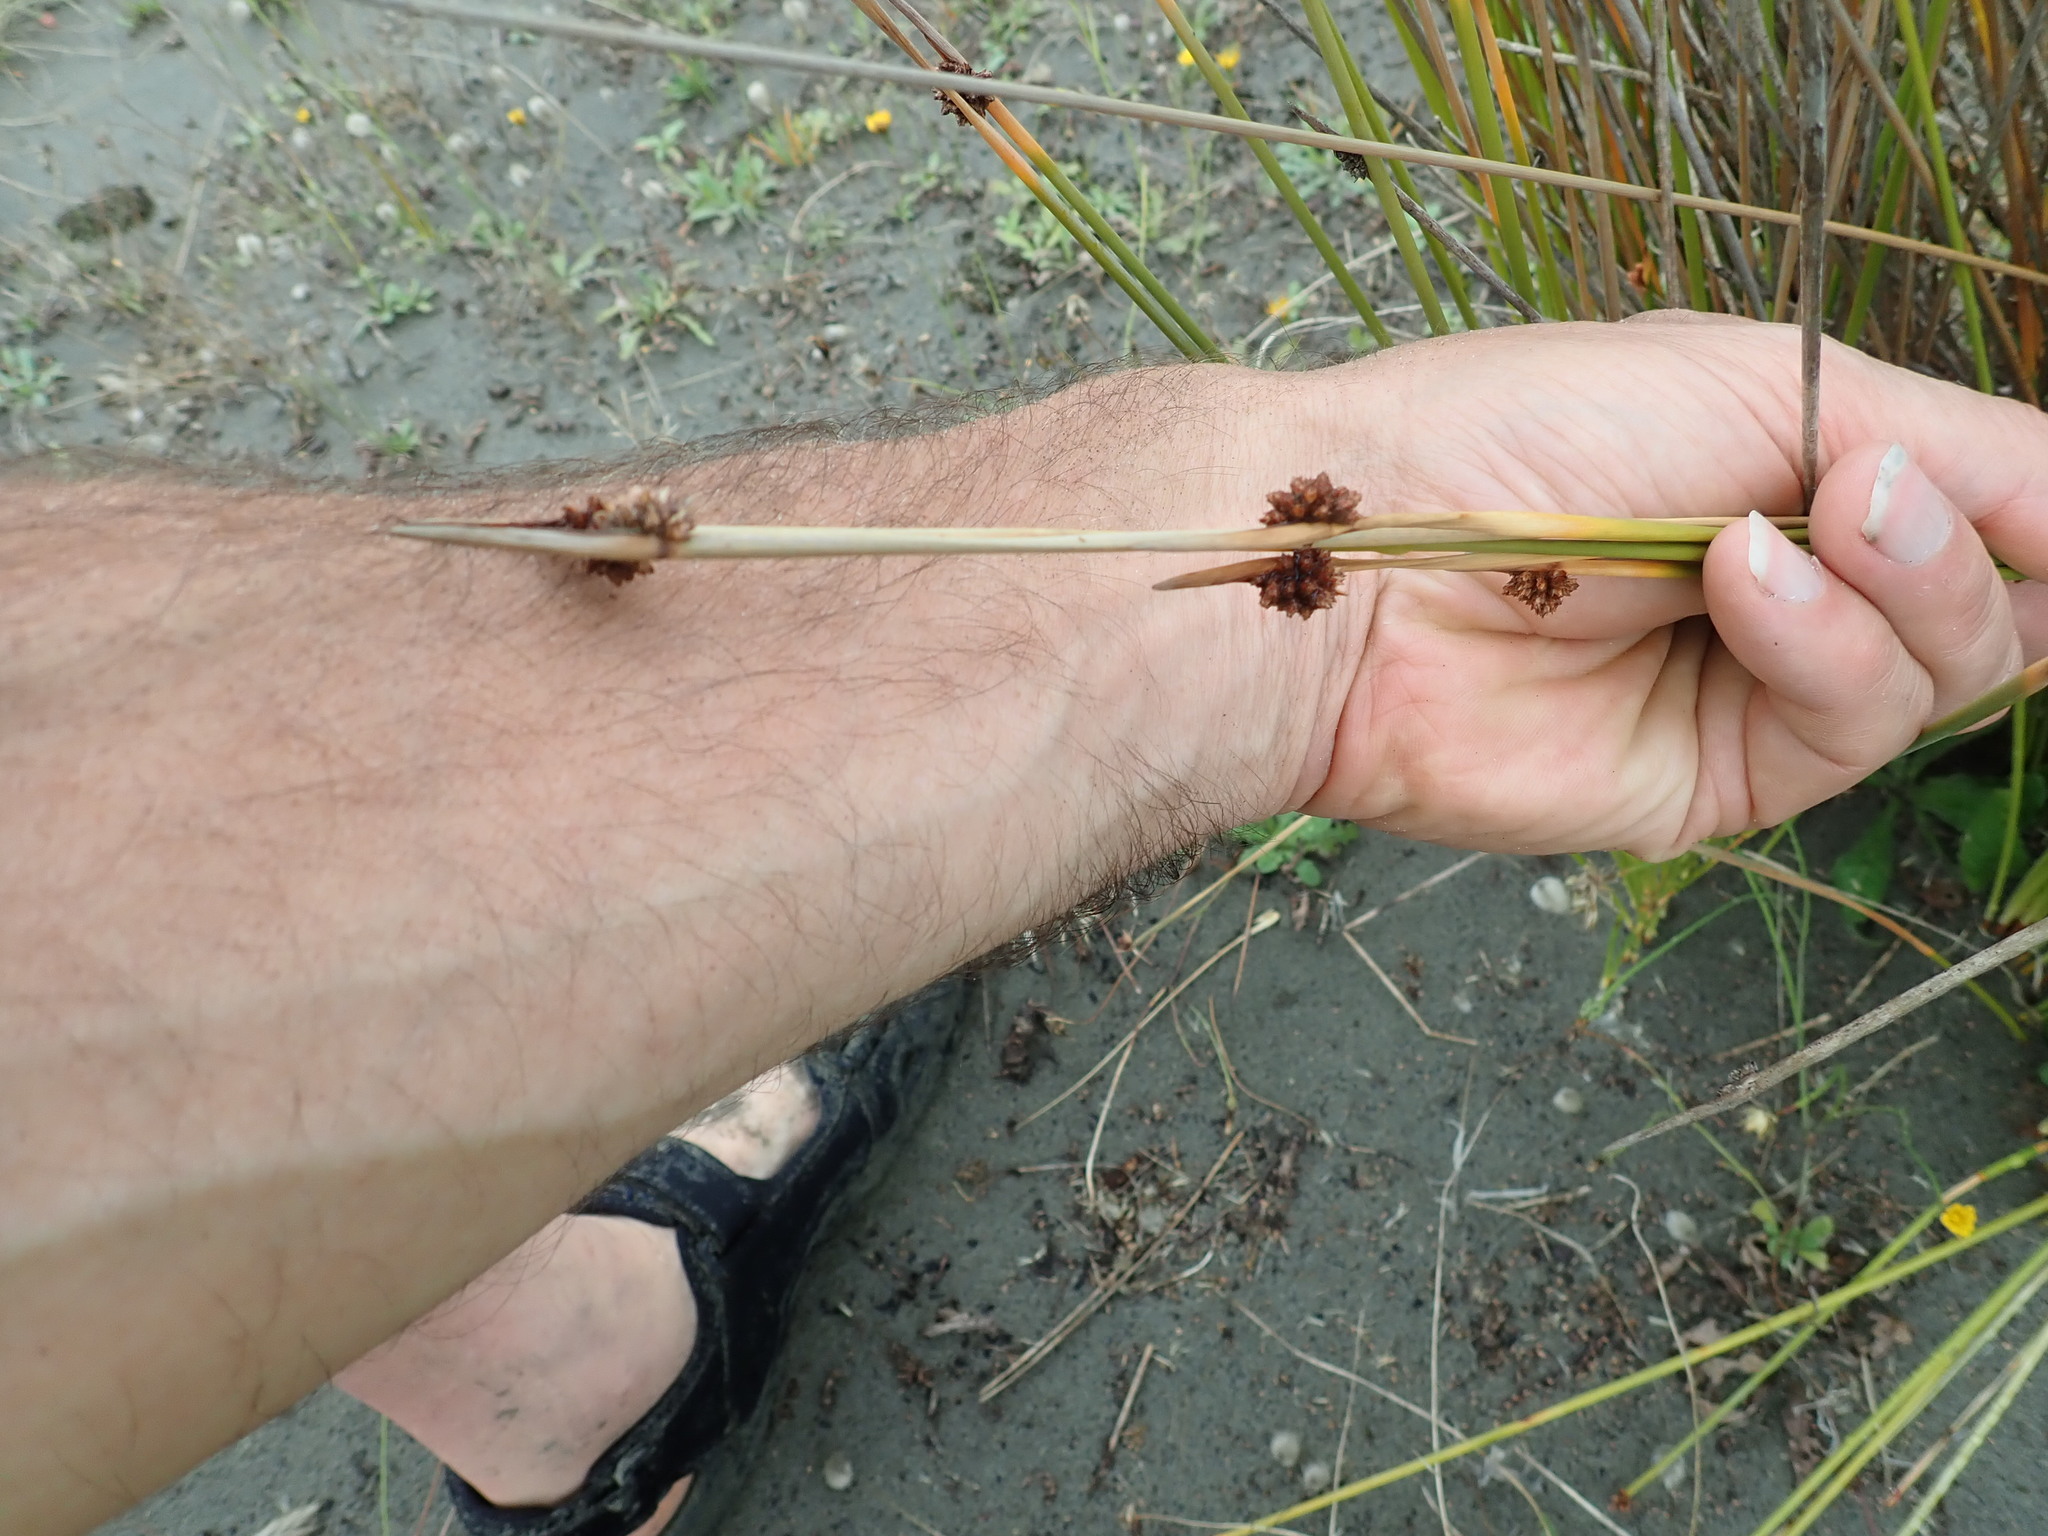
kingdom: Plantae
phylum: Tracheophyta
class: Liliopsida
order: Poales
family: Cyperaceae
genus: Ficinia
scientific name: Ficinia nodosa
